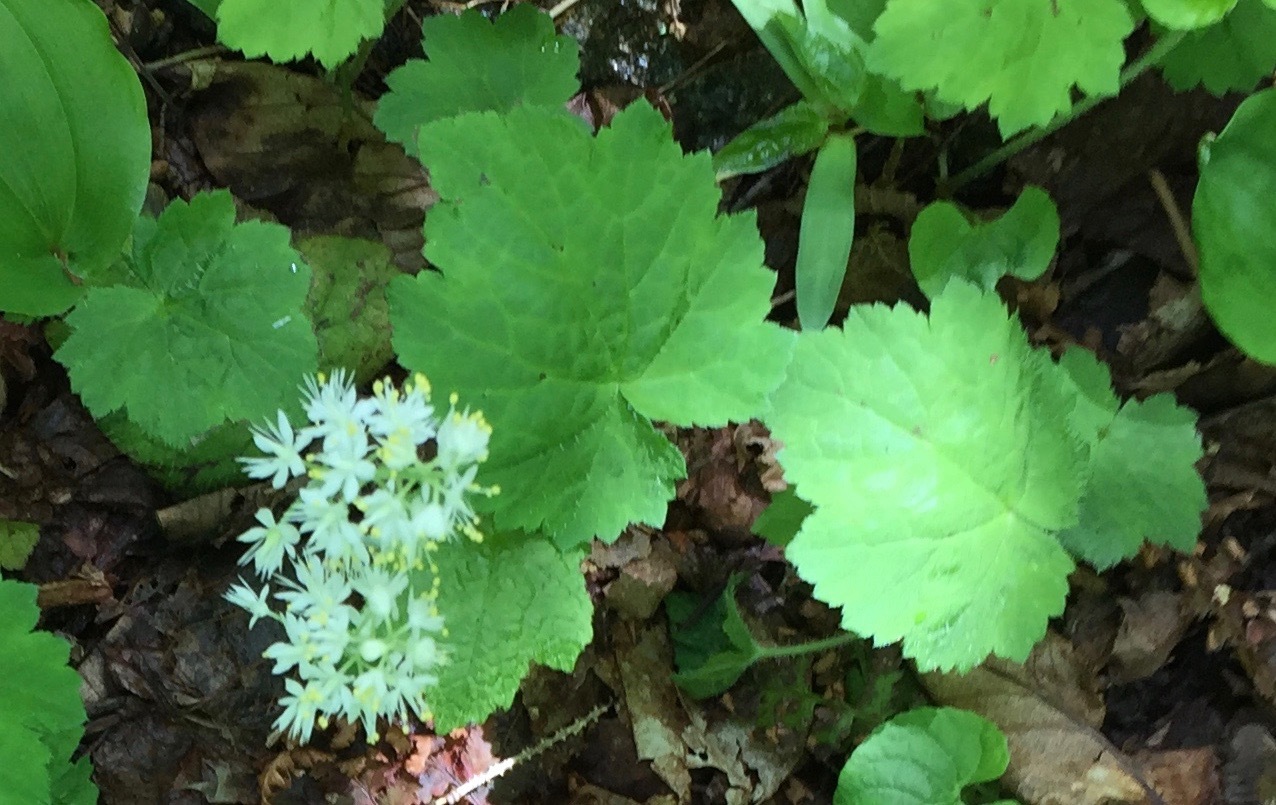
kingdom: Plantae
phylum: Tracheophyta
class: Magnoliopsida
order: Saxifragales
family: Saxifragaceae
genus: Tiarella
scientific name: Tiarella stolonifera
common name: Stoloniferous foamflower
